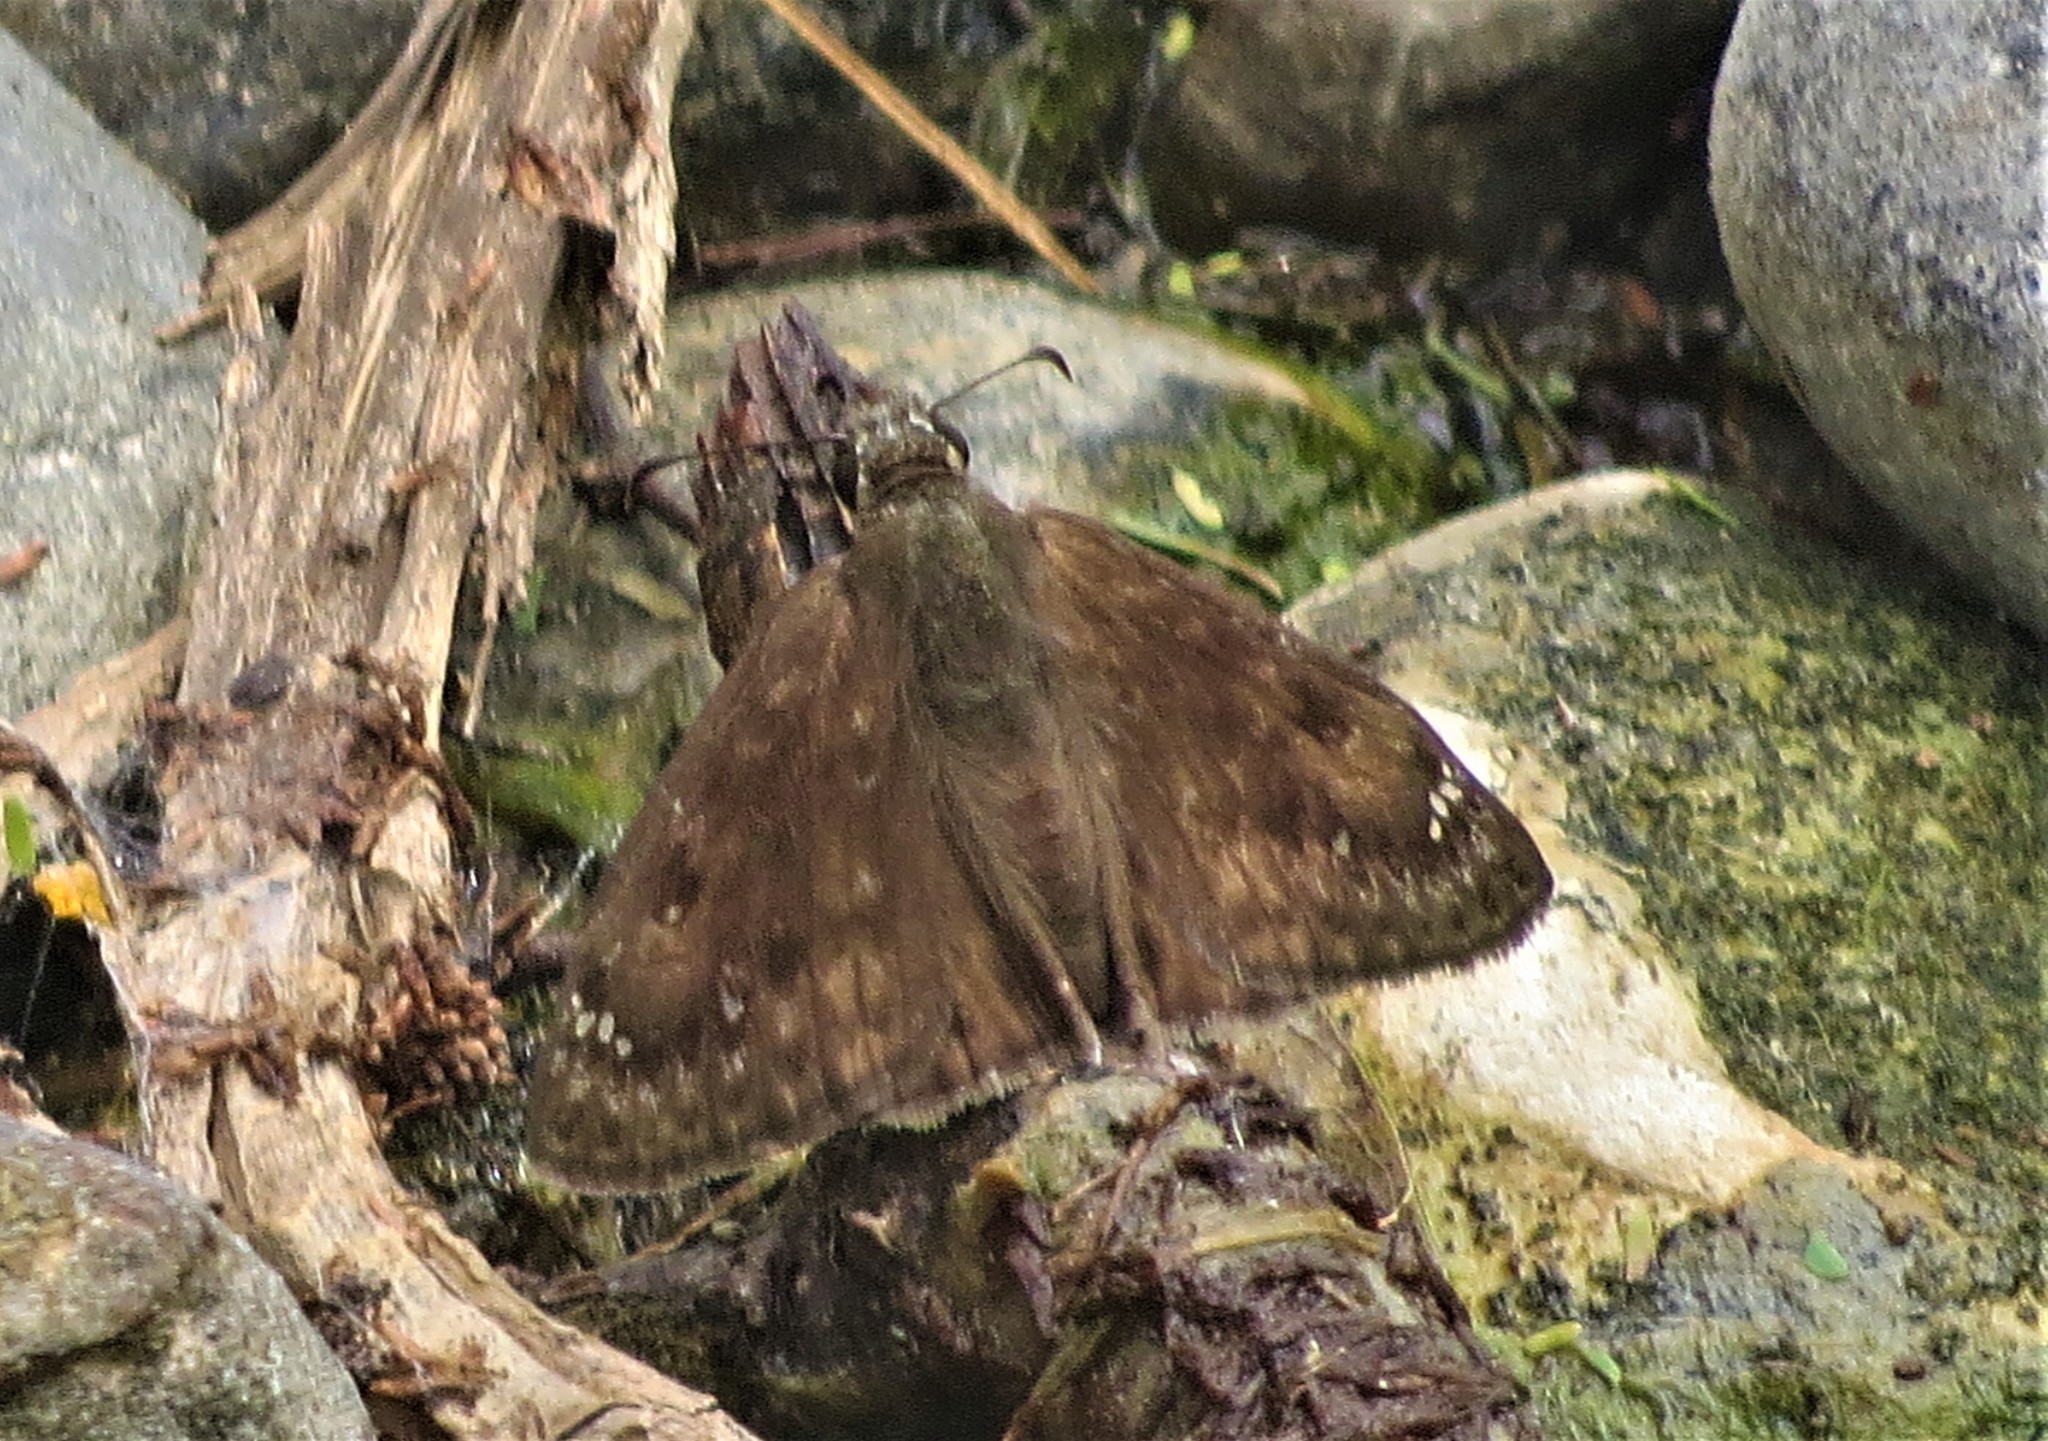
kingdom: Animalia
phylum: Arthropoda
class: Insecta
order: Lepidoptera
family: Hesperiidae
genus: Erynnis
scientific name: Erynnis horatius
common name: Horace's duskywing
